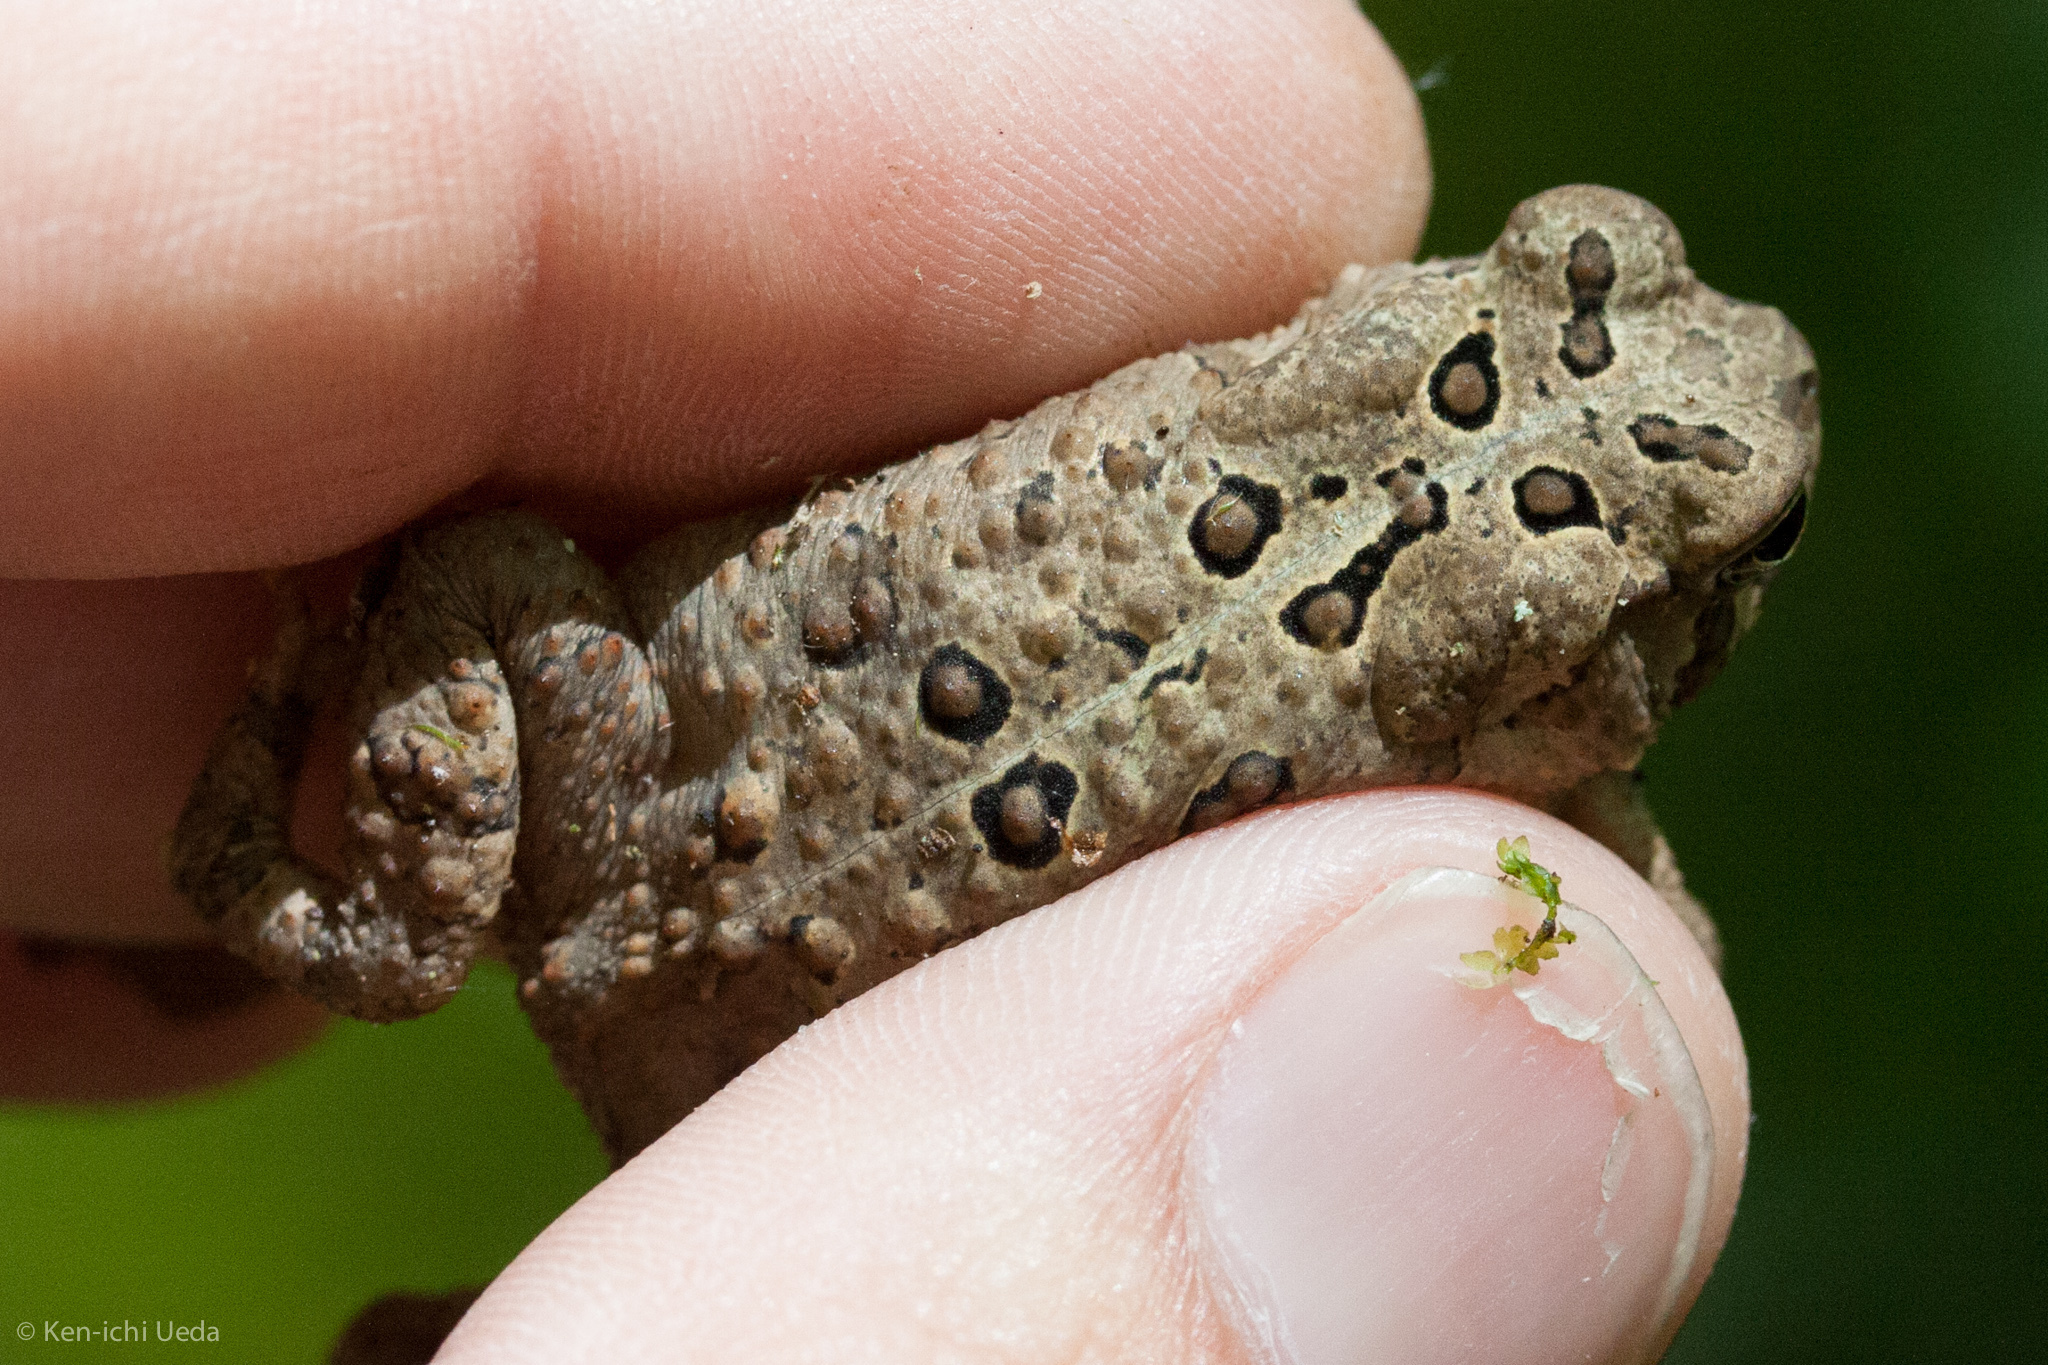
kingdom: Animalia
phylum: Chordata
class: Amphibia
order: Anura
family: Bufonidae
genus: Anaxyrus
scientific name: Anaxyrus americanus
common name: American toad
